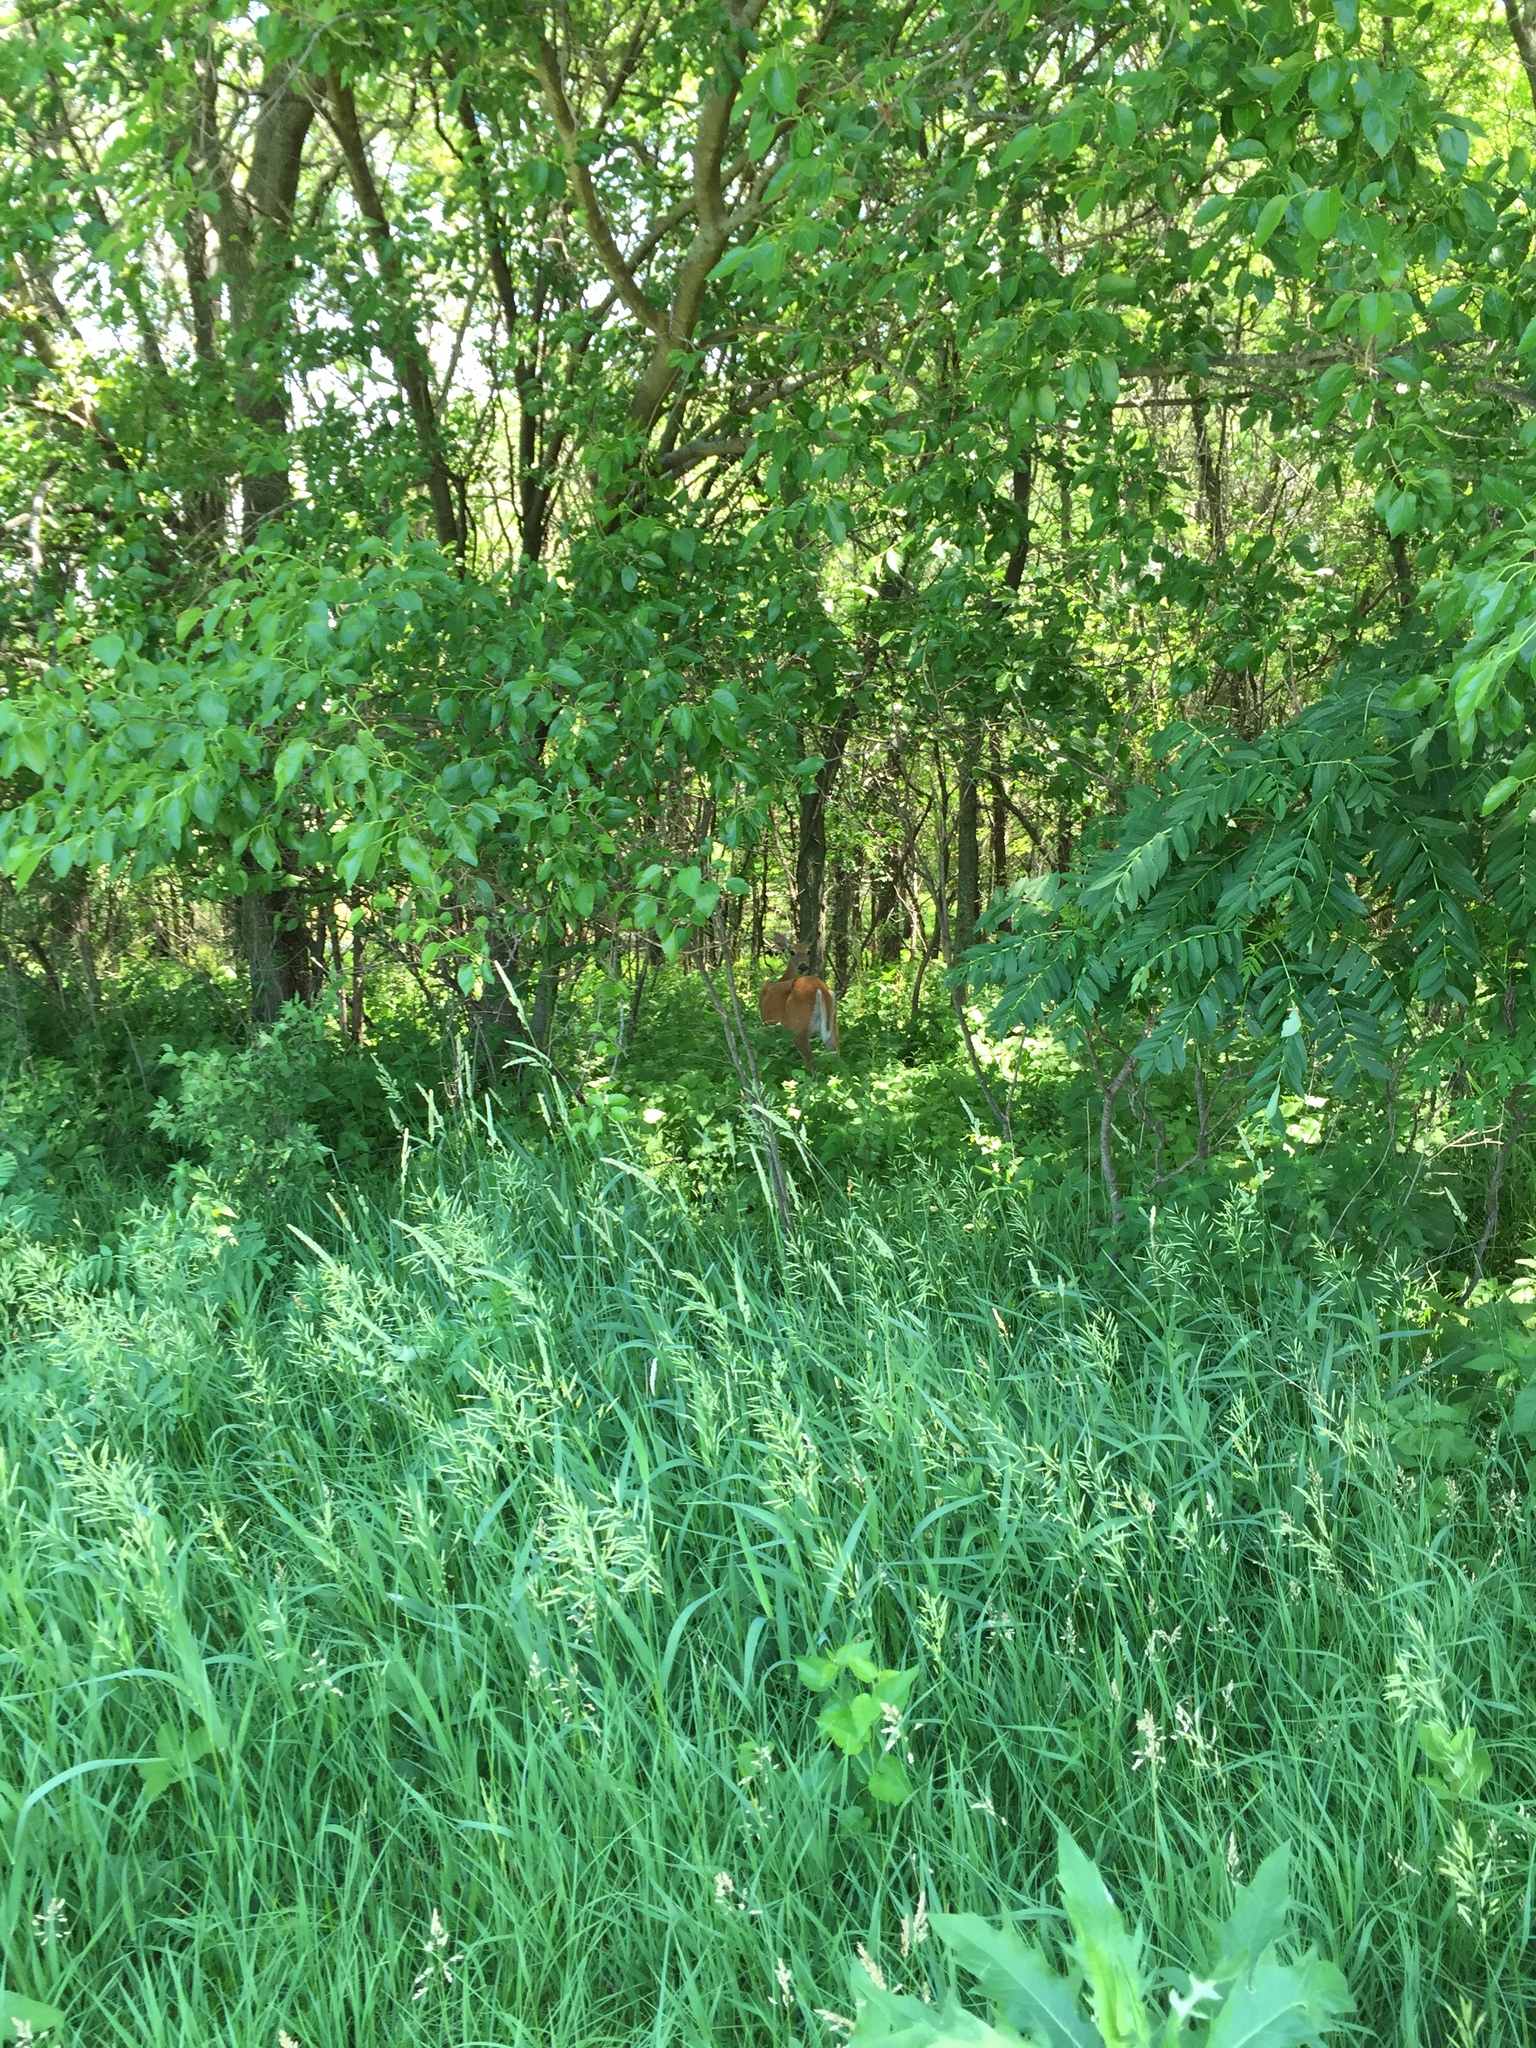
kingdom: Animalia
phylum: Chordata
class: Mammalia
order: Artiodactyla
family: Cervidae
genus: Odocoileus
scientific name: Odocoileus virginianus
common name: White-tailed deer
